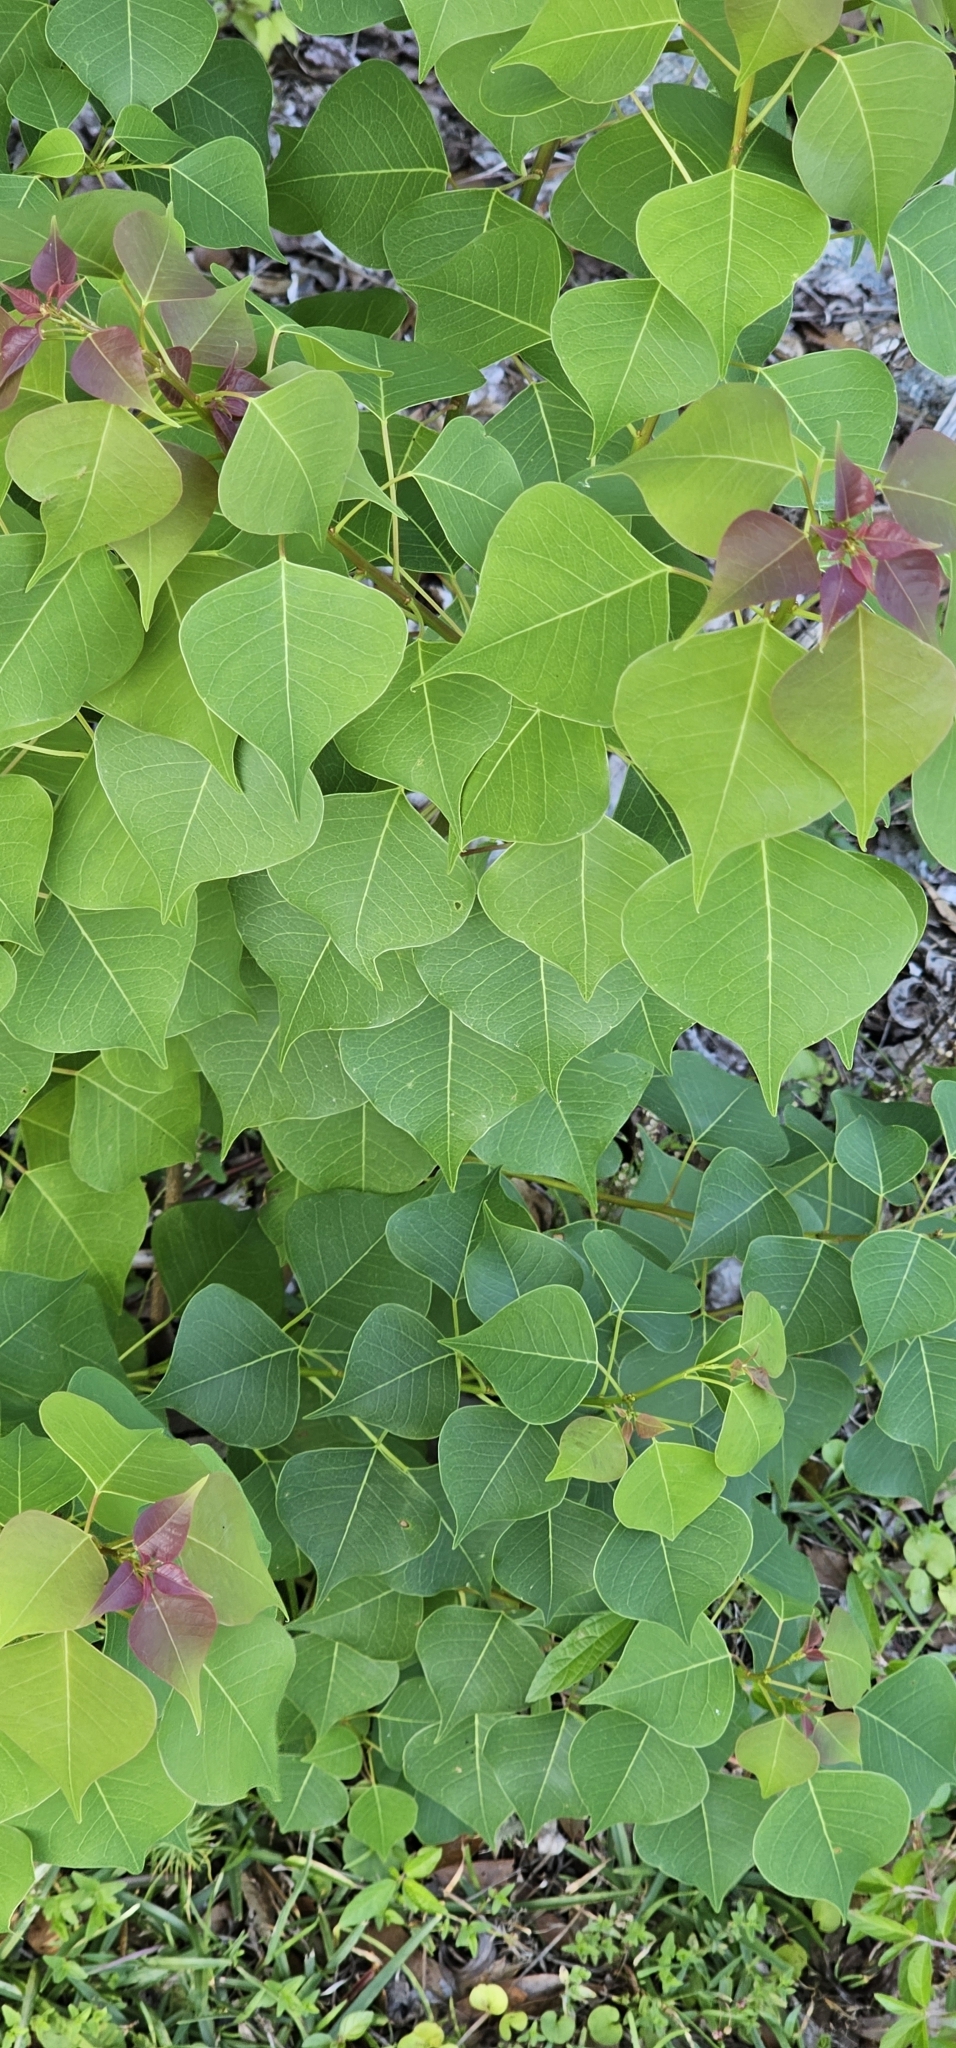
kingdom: Plantae
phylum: Tracheophyta
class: Magnoliopsida
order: Malpighiales
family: Euphorbiaceae
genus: Triadica
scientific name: Triadica sebifera
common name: Chinese tallow
